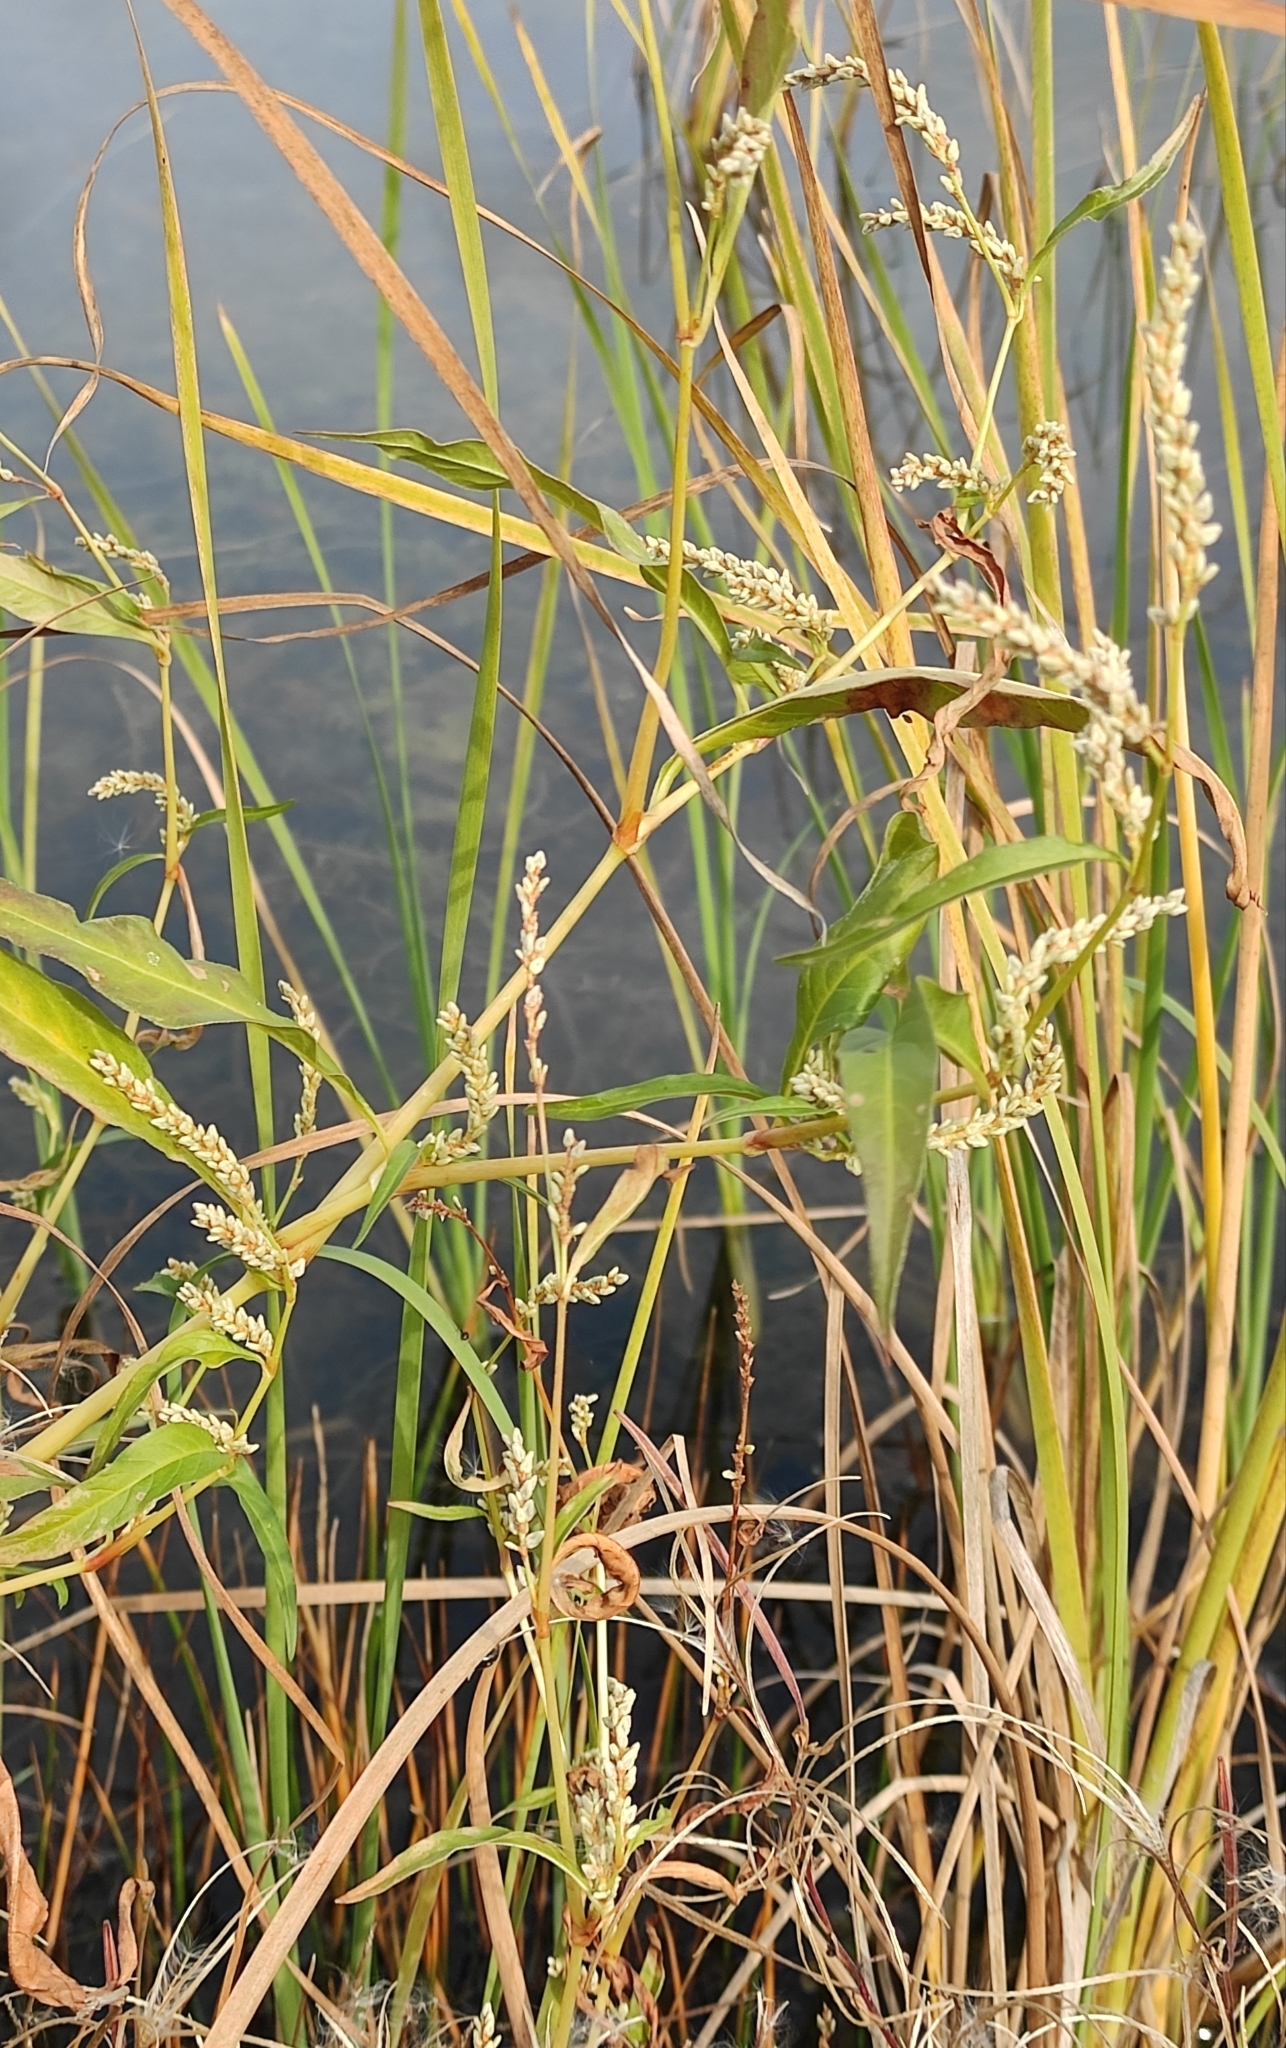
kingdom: Plantae
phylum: Tracheophyta
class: Magnoliopsida
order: Caryophyllales
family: Polygonaceae
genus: Persicaria
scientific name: Persicaria lapathifolia
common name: Curlytop knotweed
